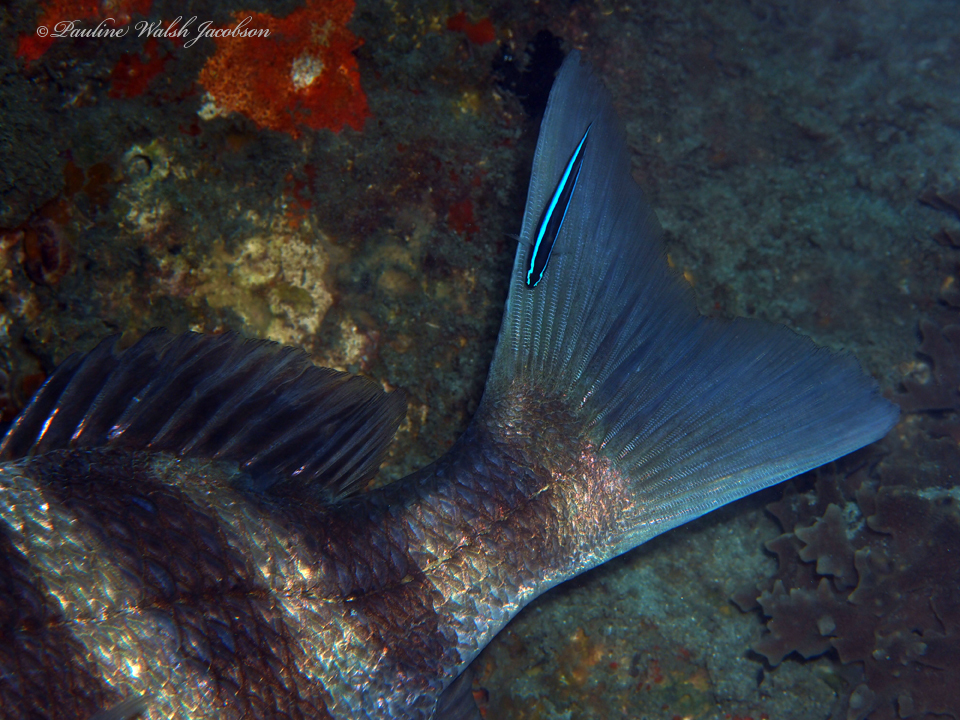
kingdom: Animalia
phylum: Chordata
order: Perciformes
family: Gobiidae
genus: Elacatinus
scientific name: Elacatinus oceanops
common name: Northern neon goby
